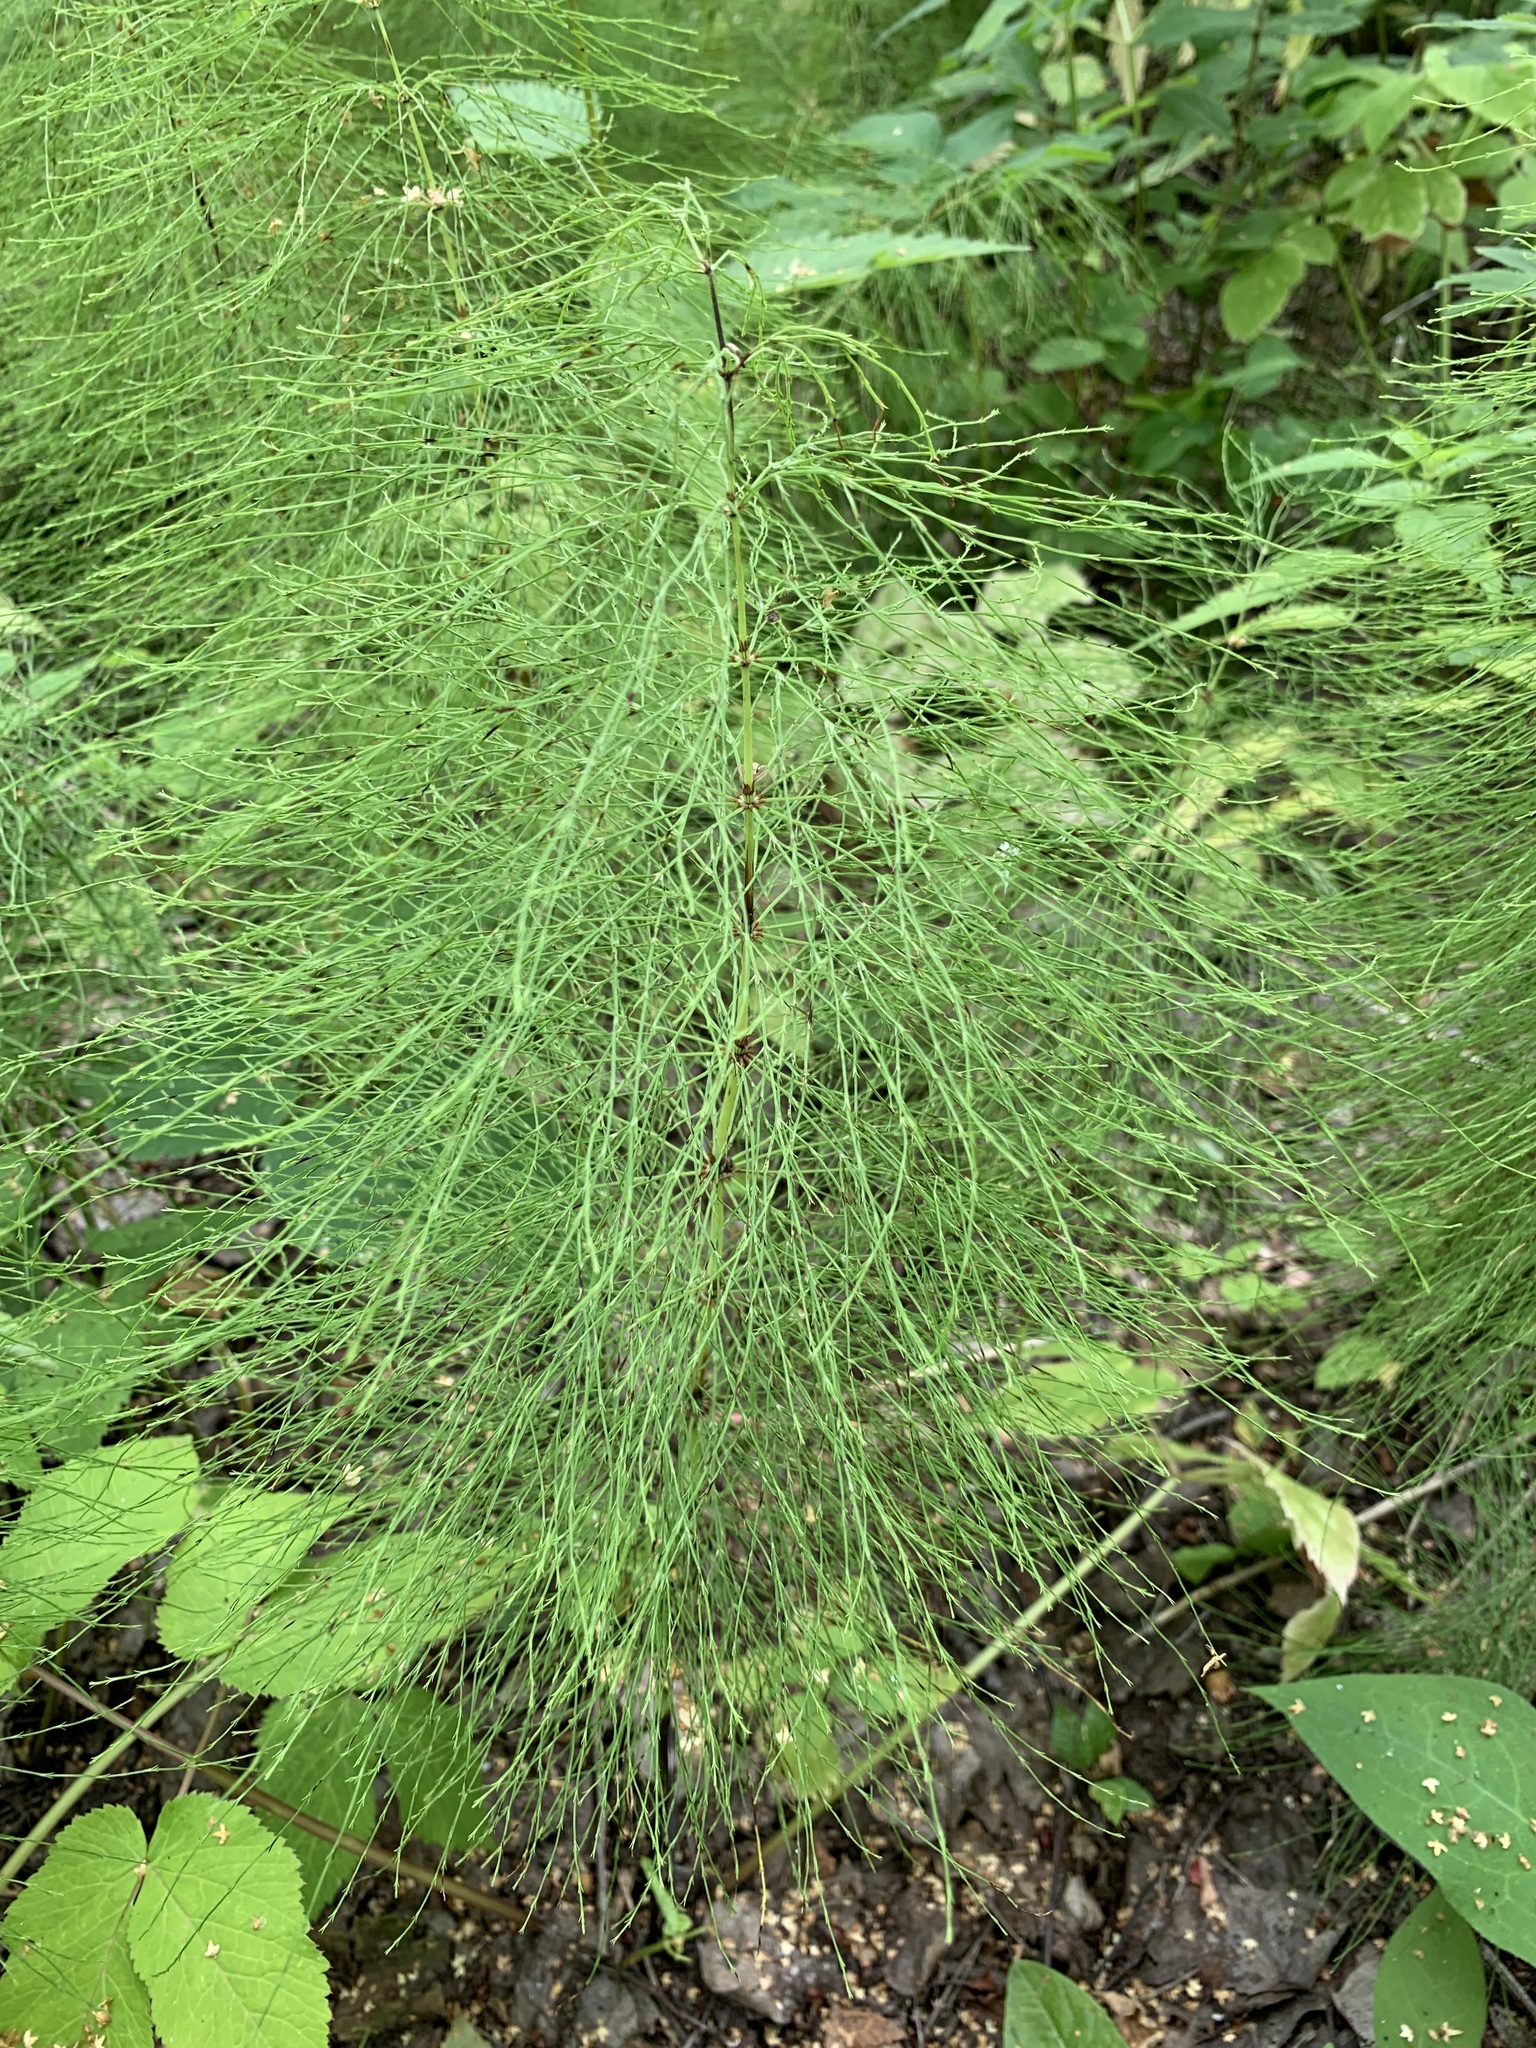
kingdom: Plantae
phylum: Tracheophyta
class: Polypodiopsida
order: Equisetales
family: Equisetaceae
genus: Equisetum
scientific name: Equisetum sylvaticum
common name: Wood horsetail
